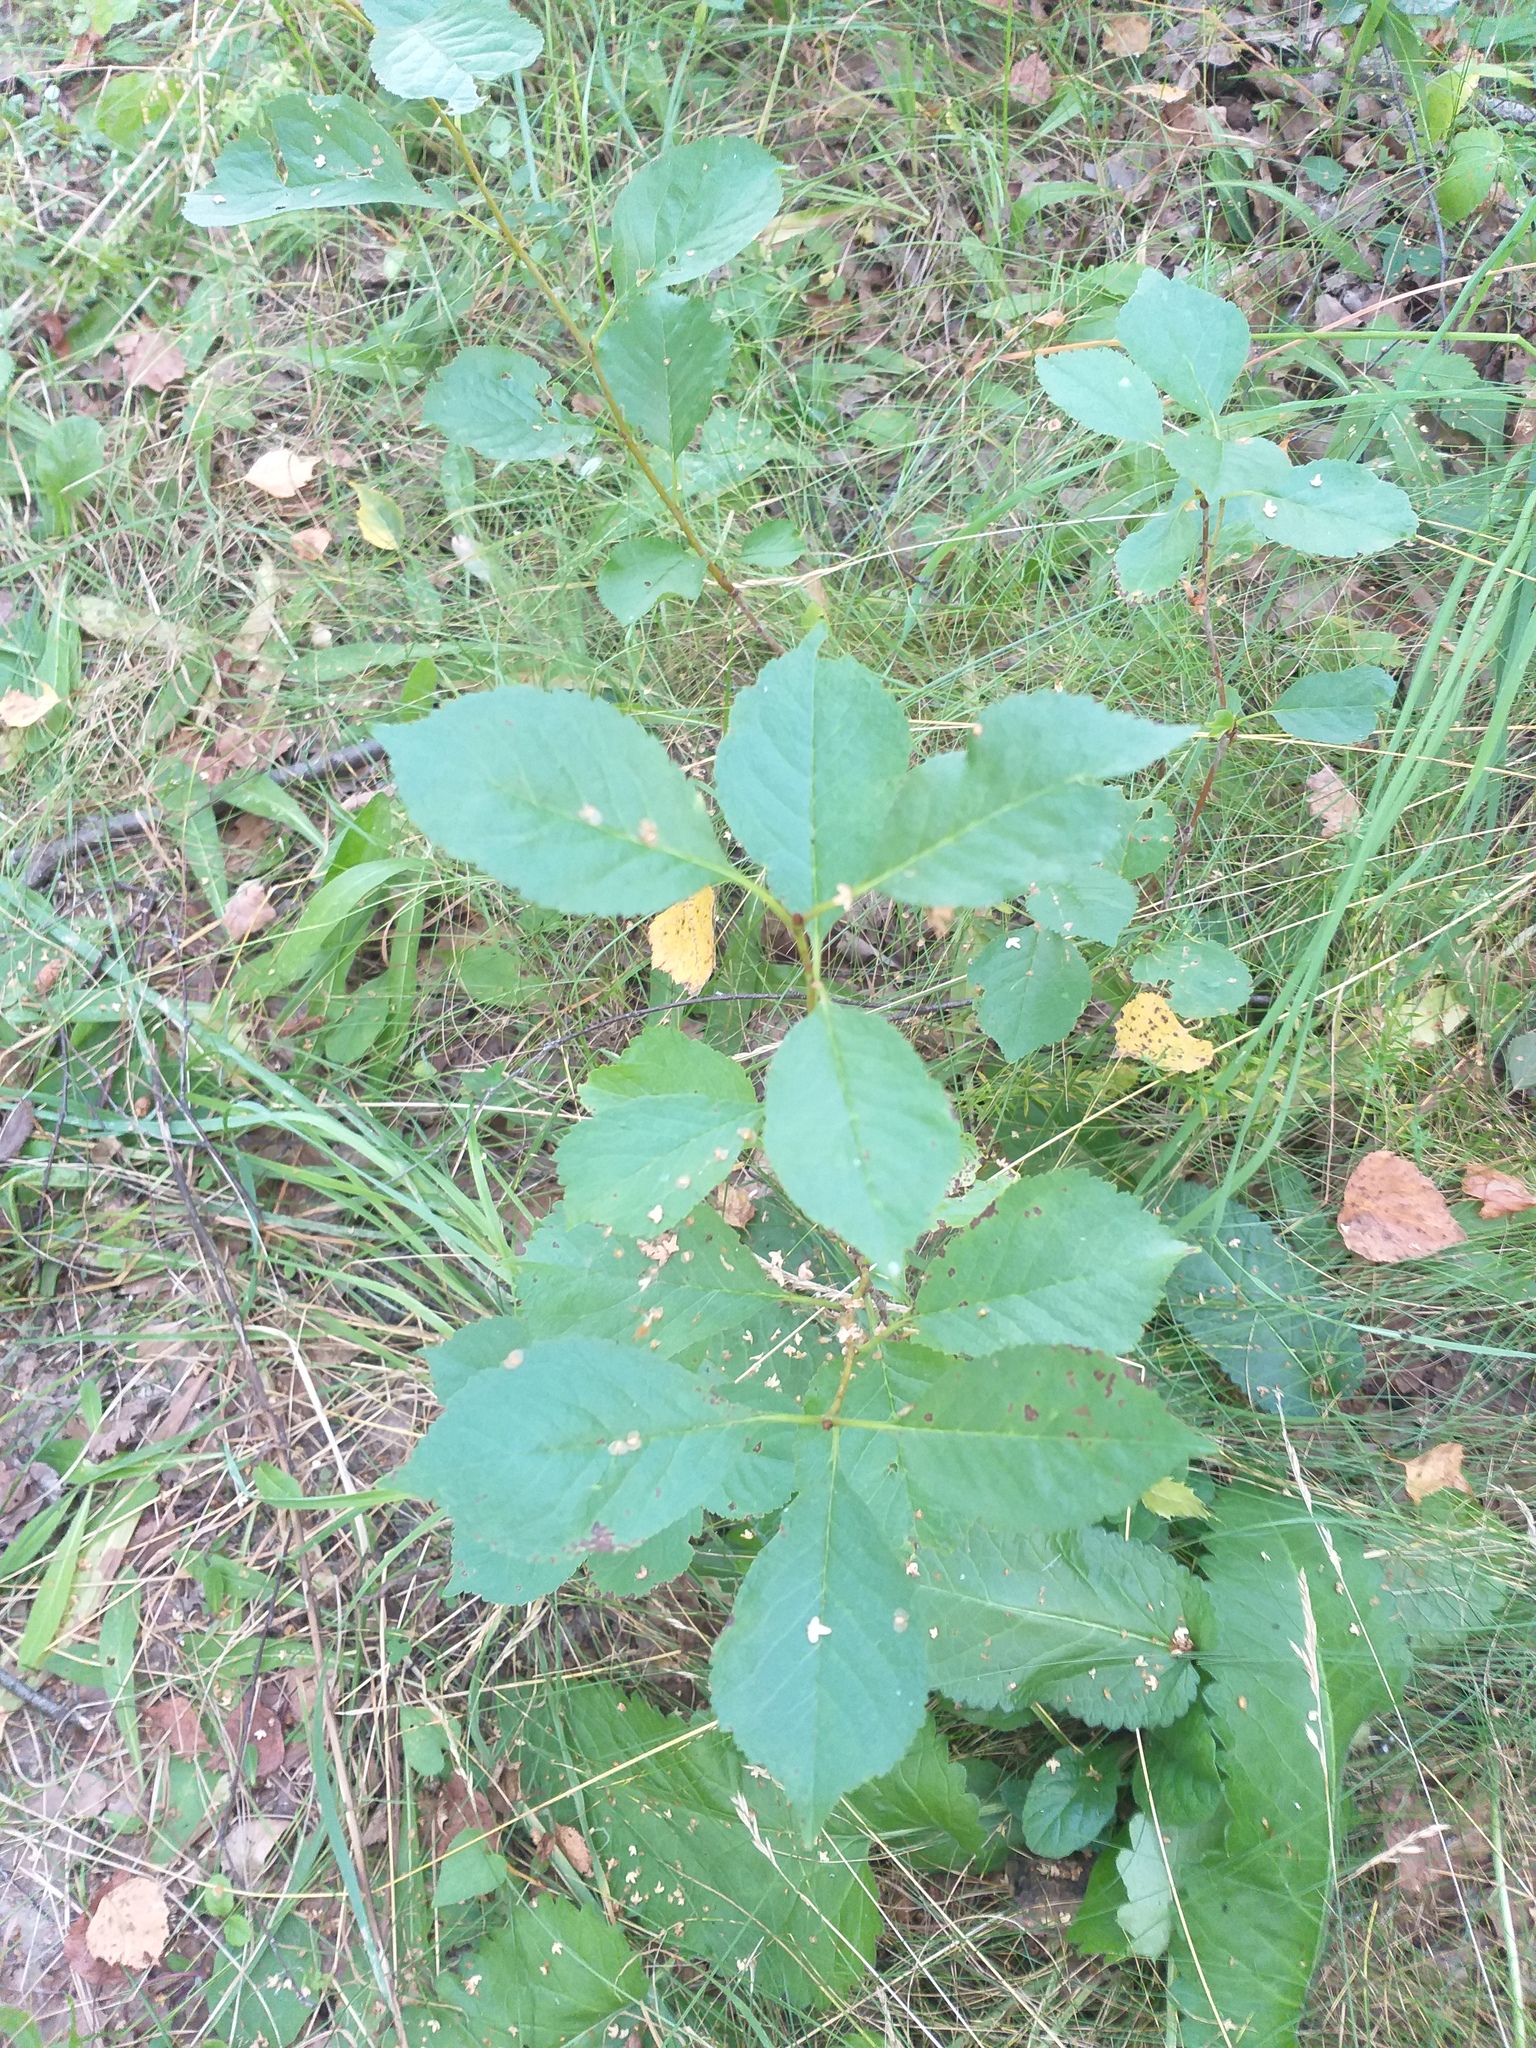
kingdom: Plantae
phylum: Tracheophyta
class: Magnoliopsida
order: Rosales
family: Rosaceae
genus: Prunus
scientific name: Prunus cerasus
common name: Morello cherry
